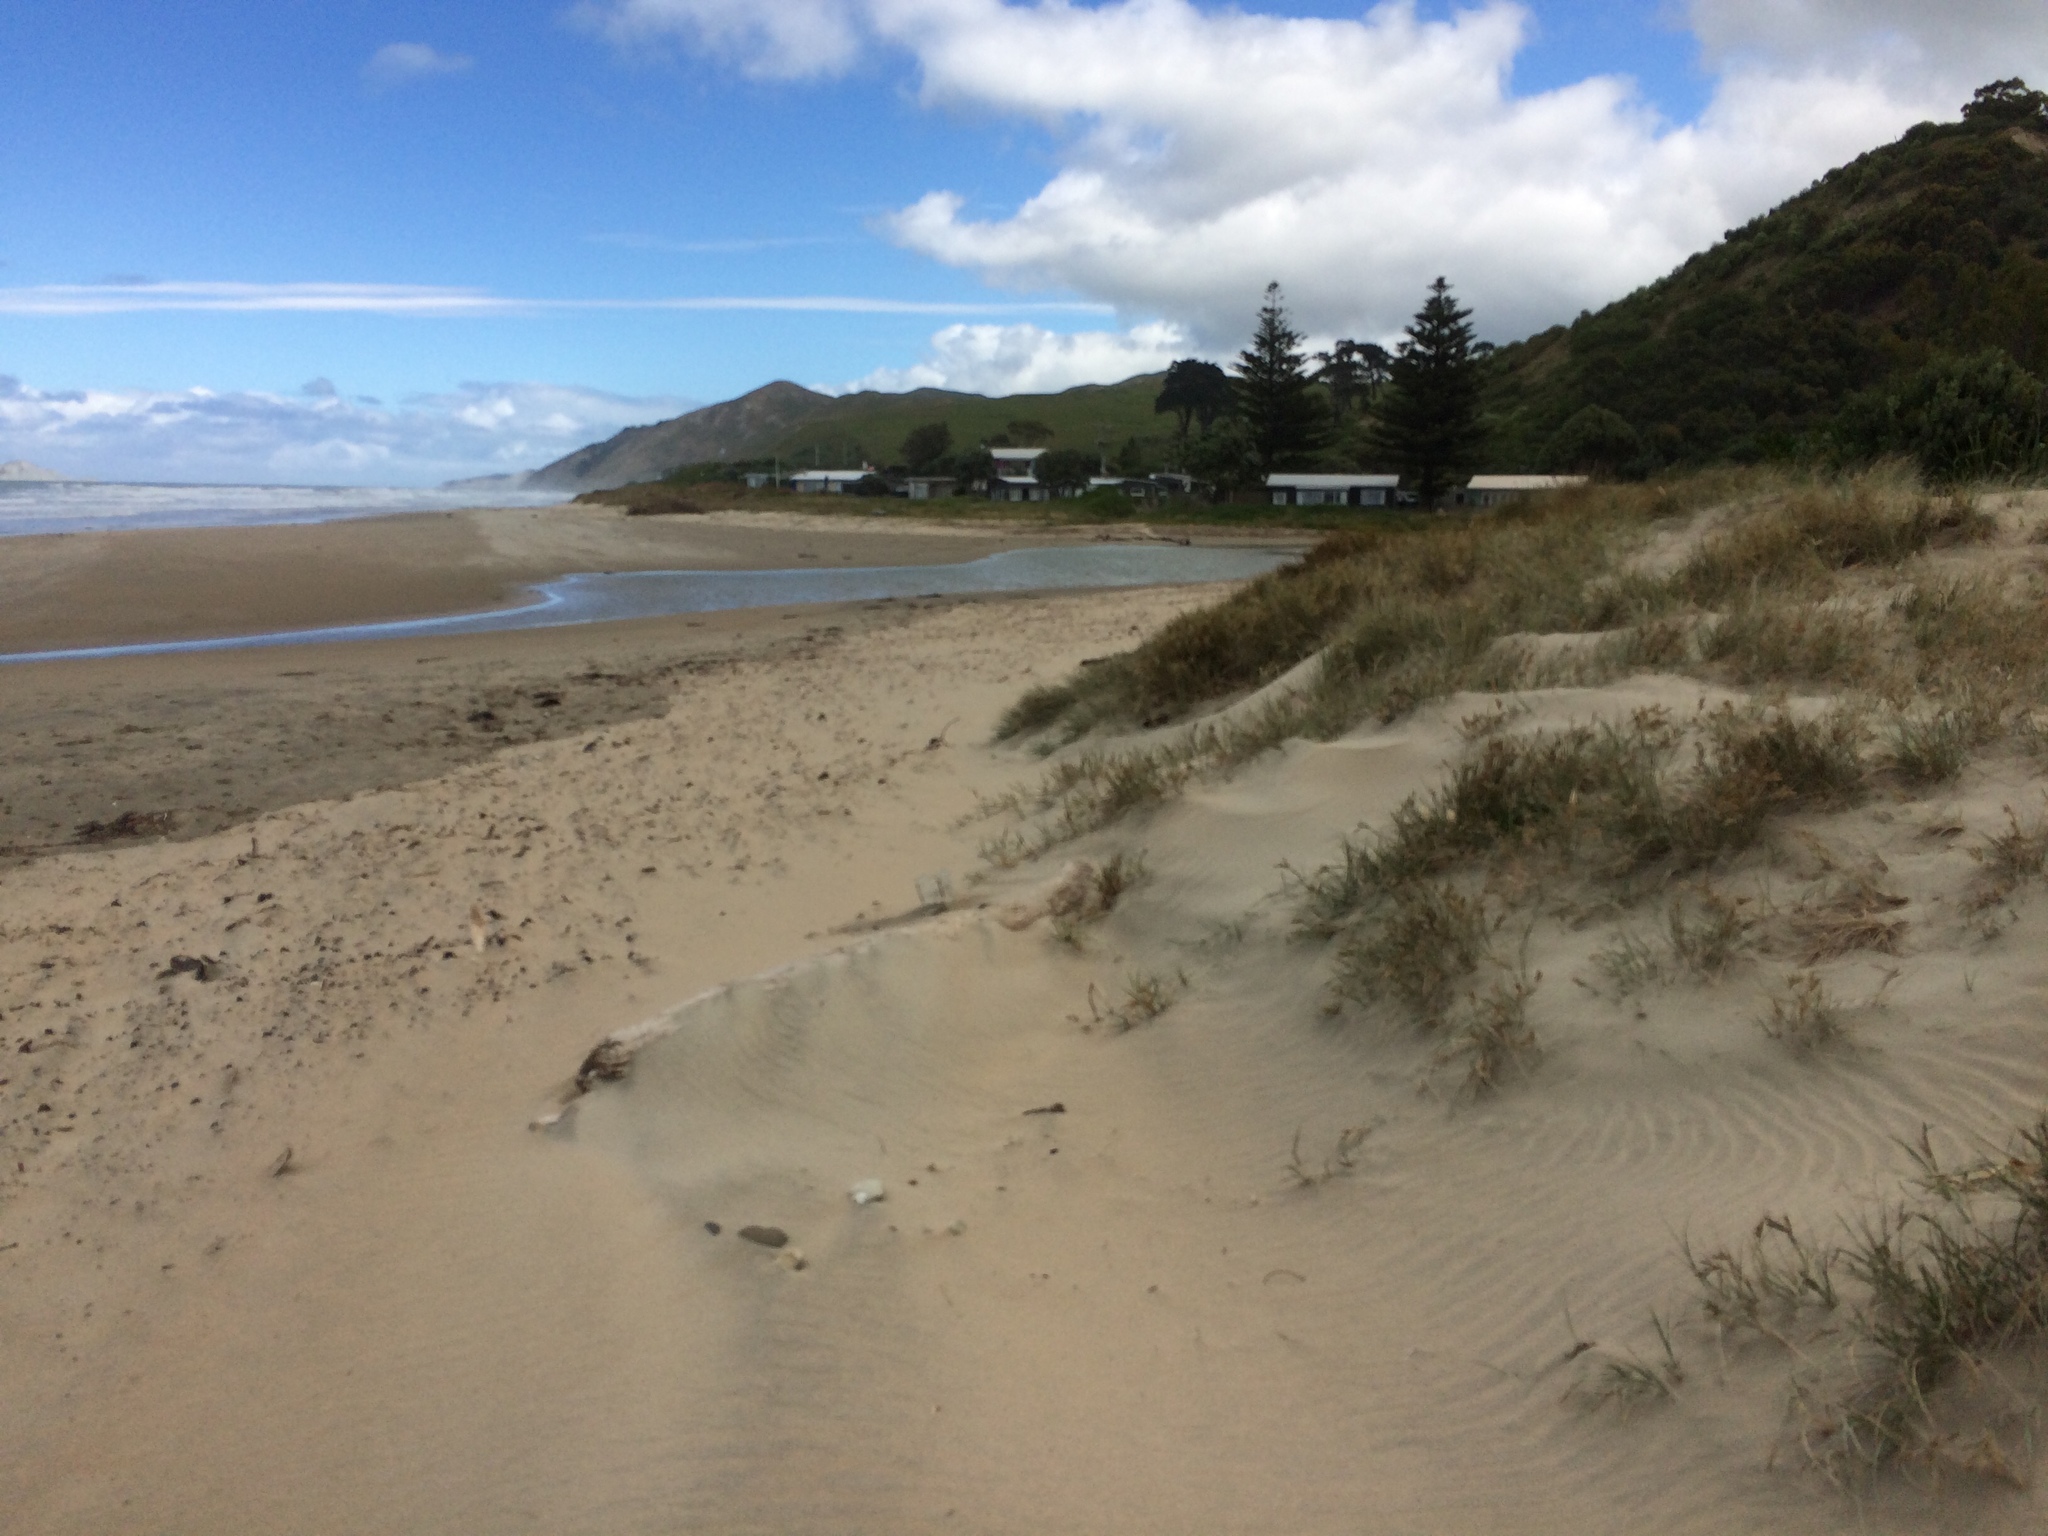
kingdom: Plantae
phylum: Tracheophyta
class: Liliopsida
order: Poales
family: Poaceae
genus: Spinifex
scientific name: Spinifex sericeus
